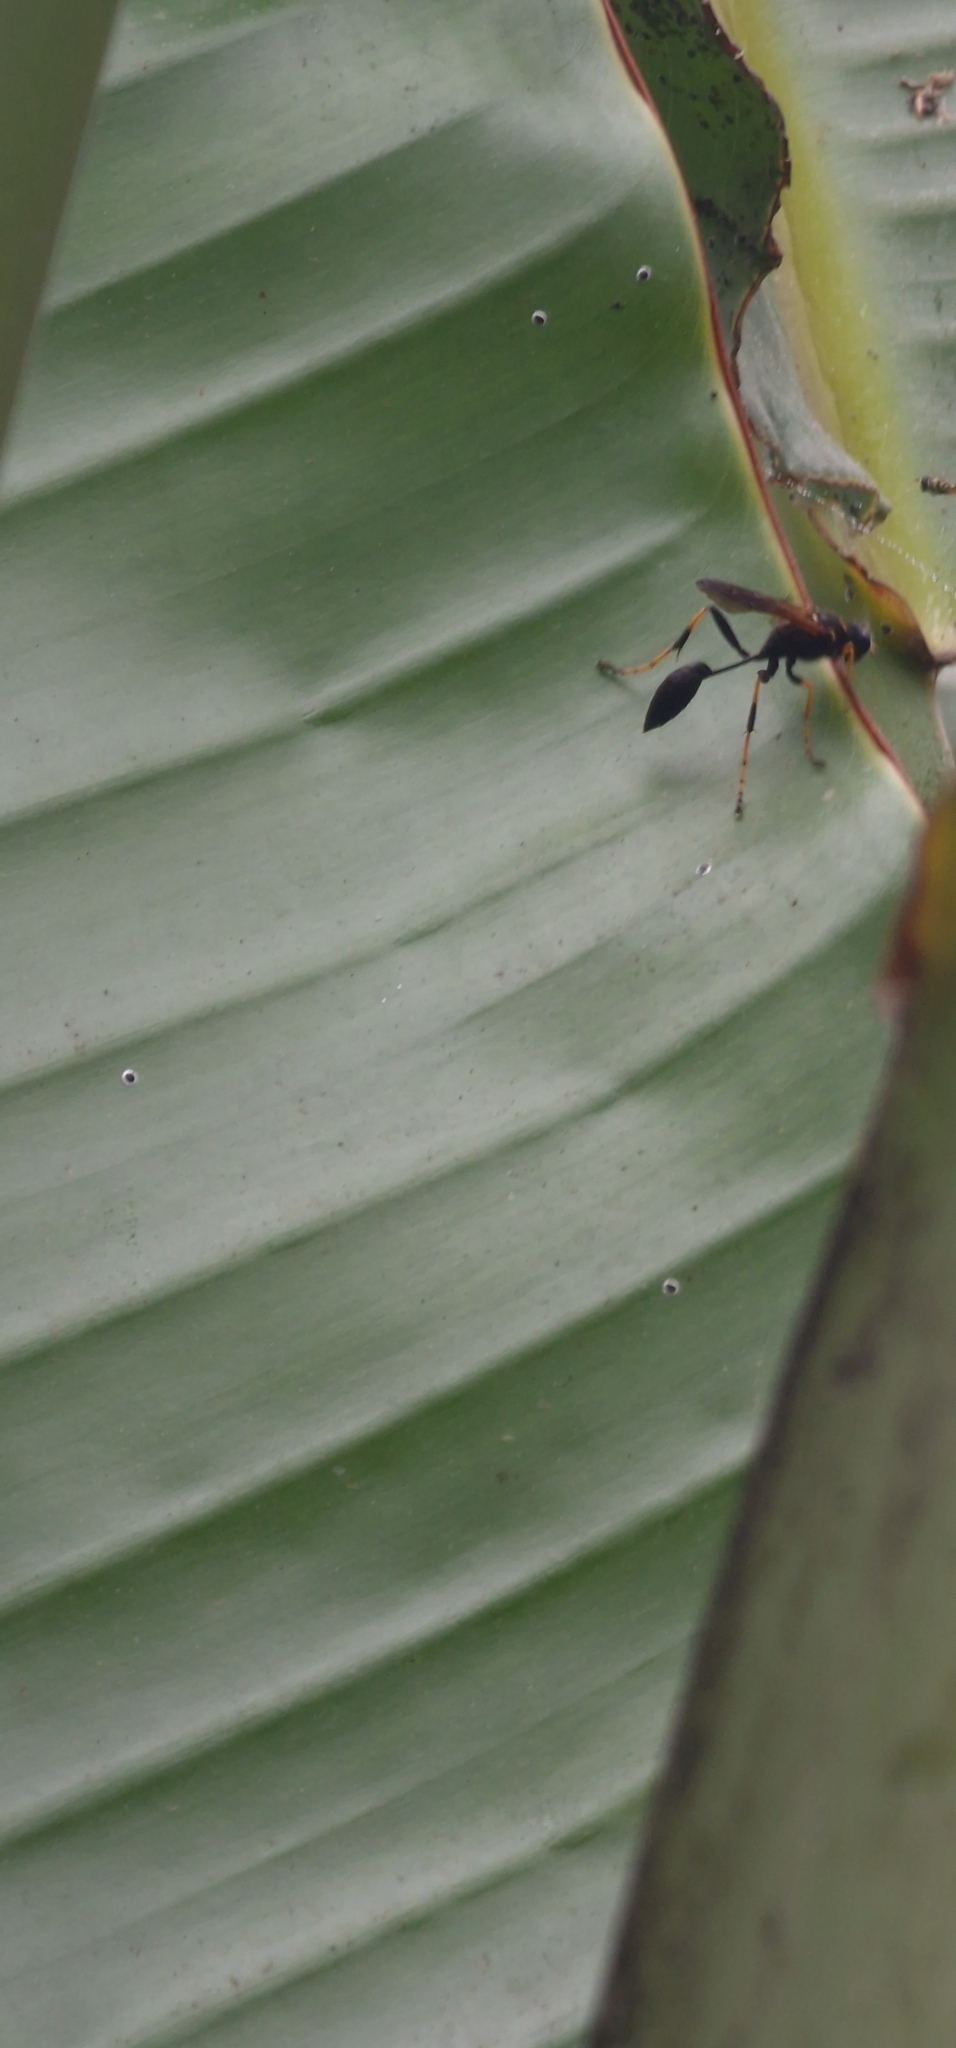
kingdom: Animalia
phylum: Arthropoda
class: Insecta
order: Hymenoptera
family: Sphecidae
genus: Sceliphron
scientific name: Sceliphron caementarium
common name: Mud dauber
